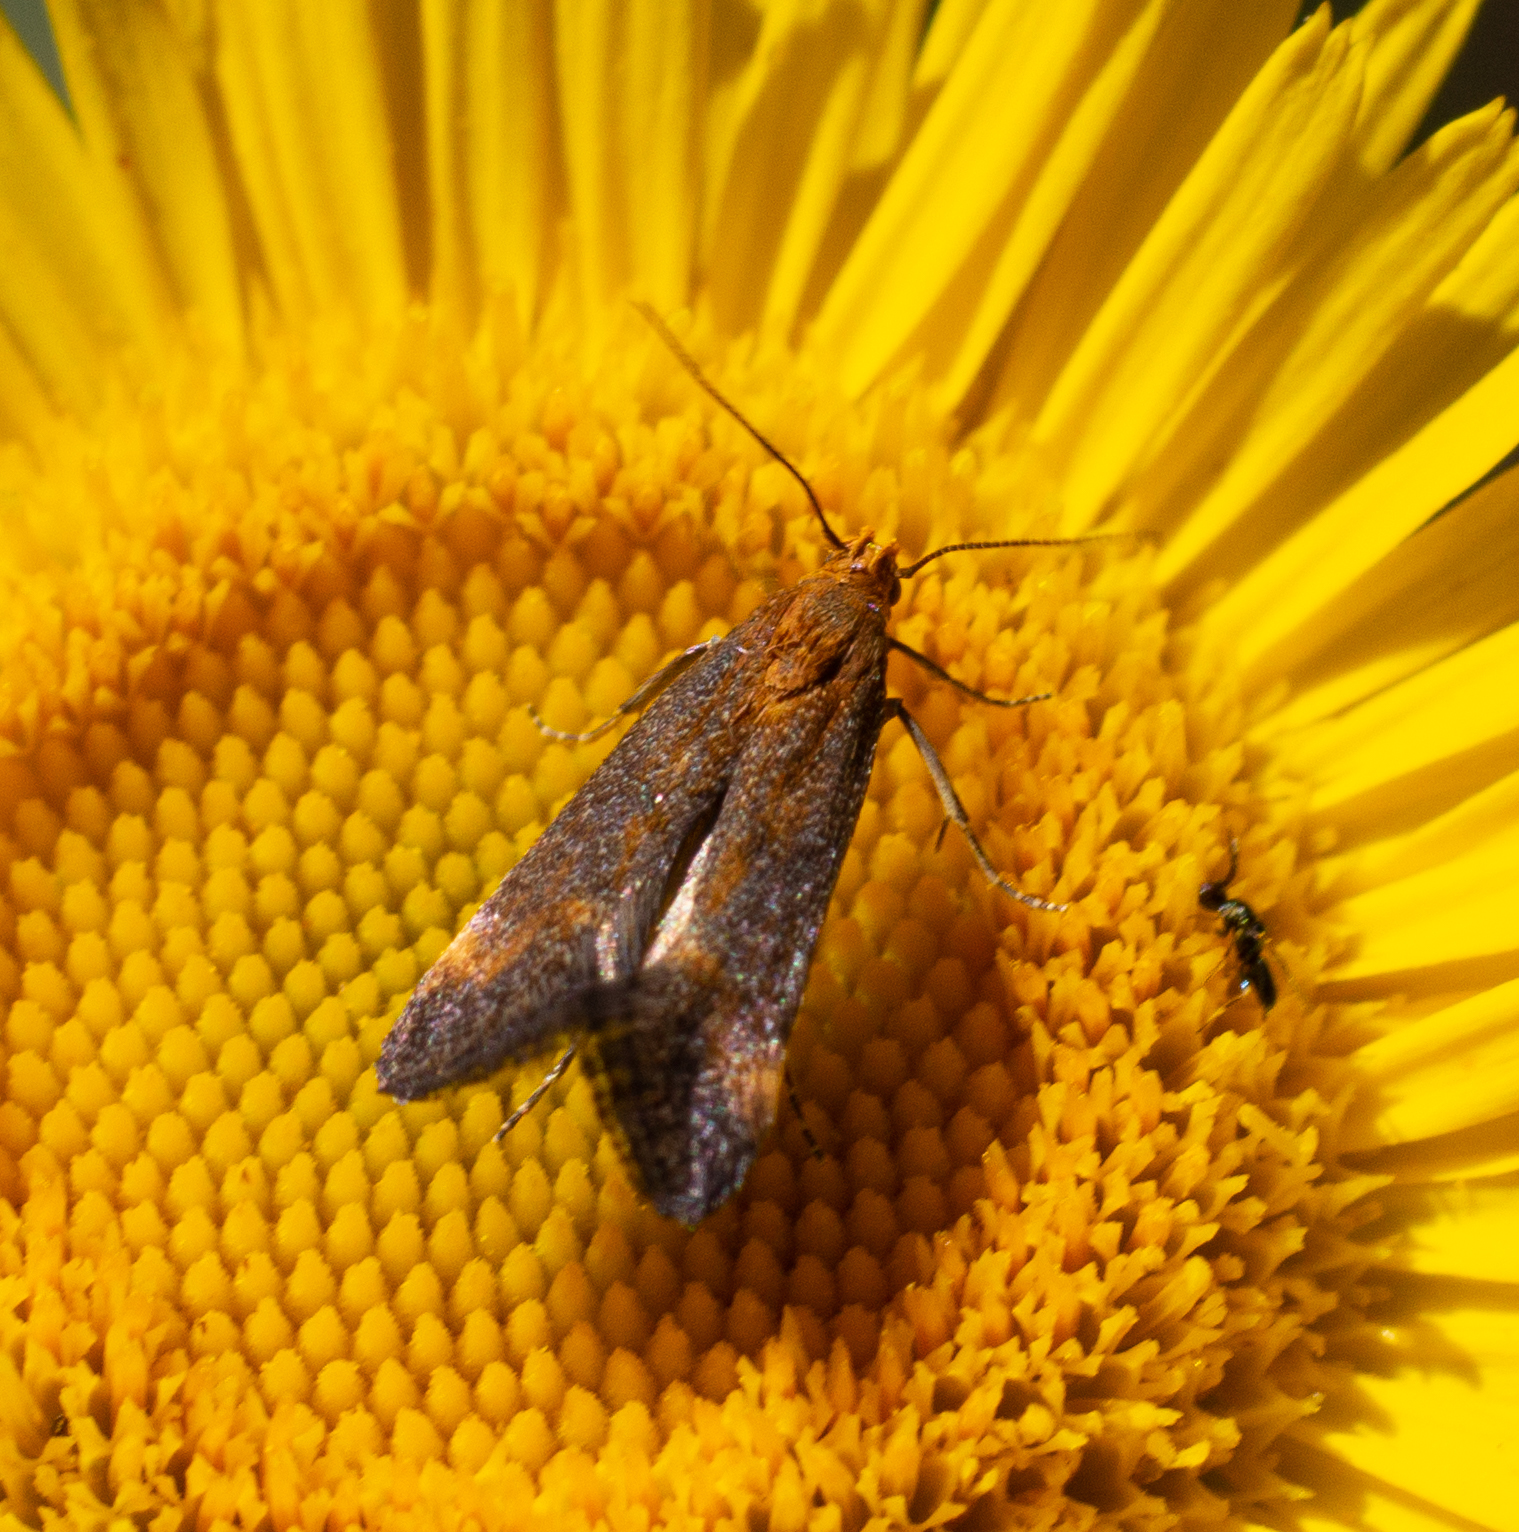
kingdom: Animalia
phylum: Arthropoda
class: Insecta
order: Lepidoptera
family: Gelechiidae
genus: Apodia
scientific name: Apodia bifractella
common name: Dark fleabane neb
